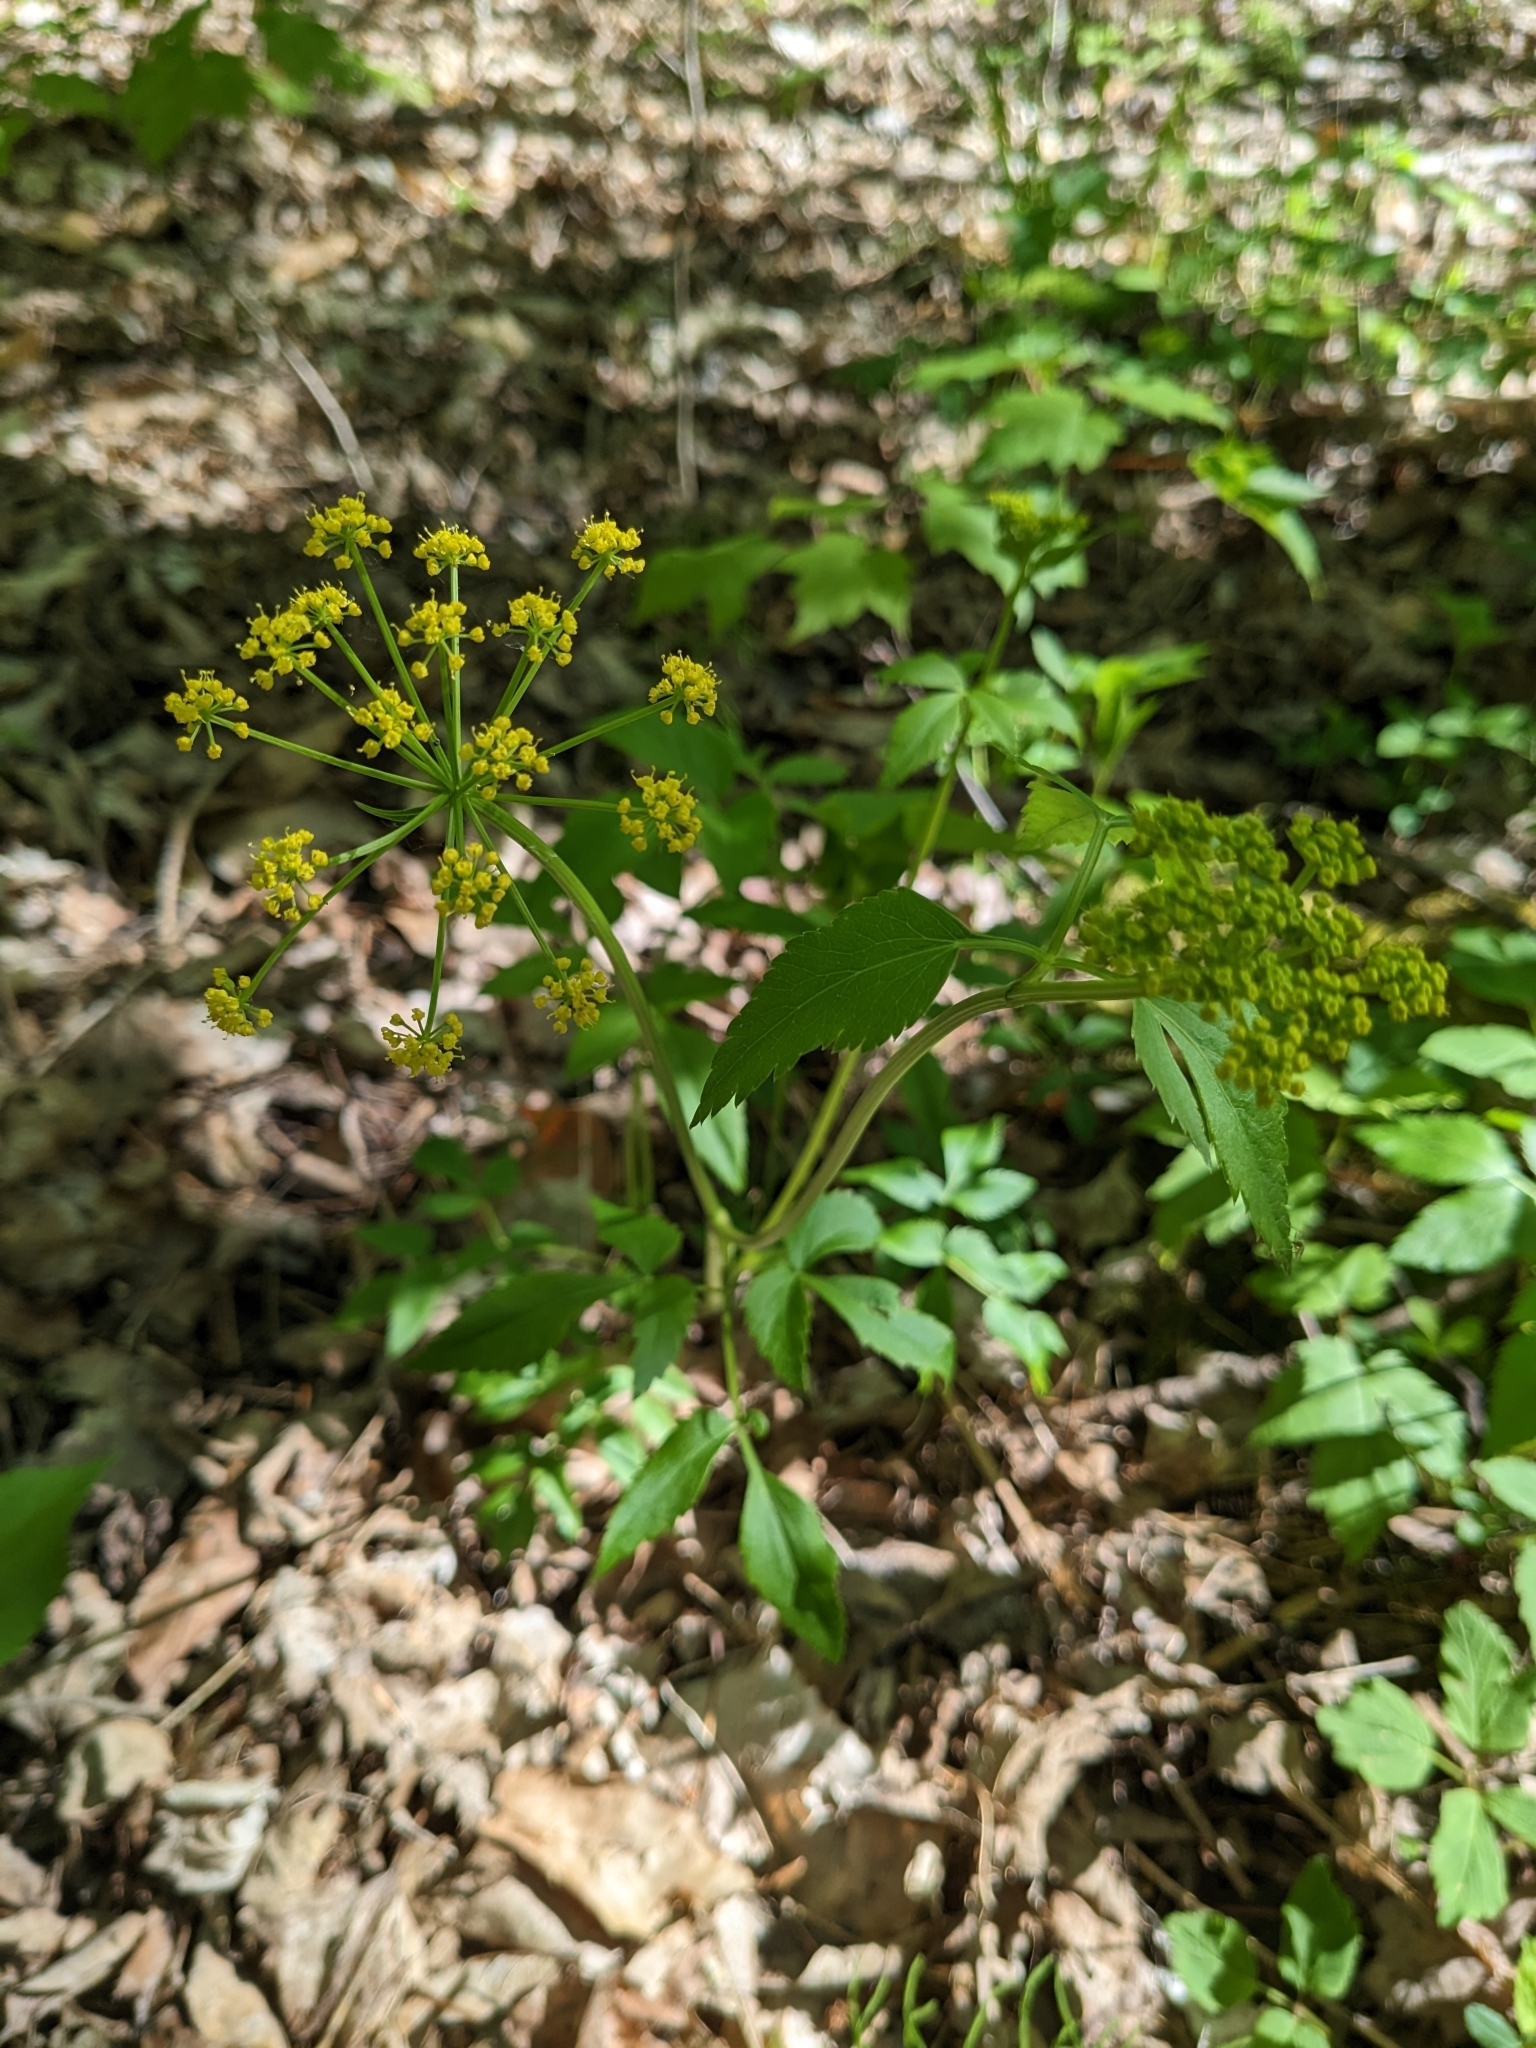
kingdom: Plantae
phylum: Tracheophyta
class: Magnoliopsida
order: Apiales
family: Apiaceae
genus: Zizia
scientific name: Zizia aurea
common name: Golden alexanders
